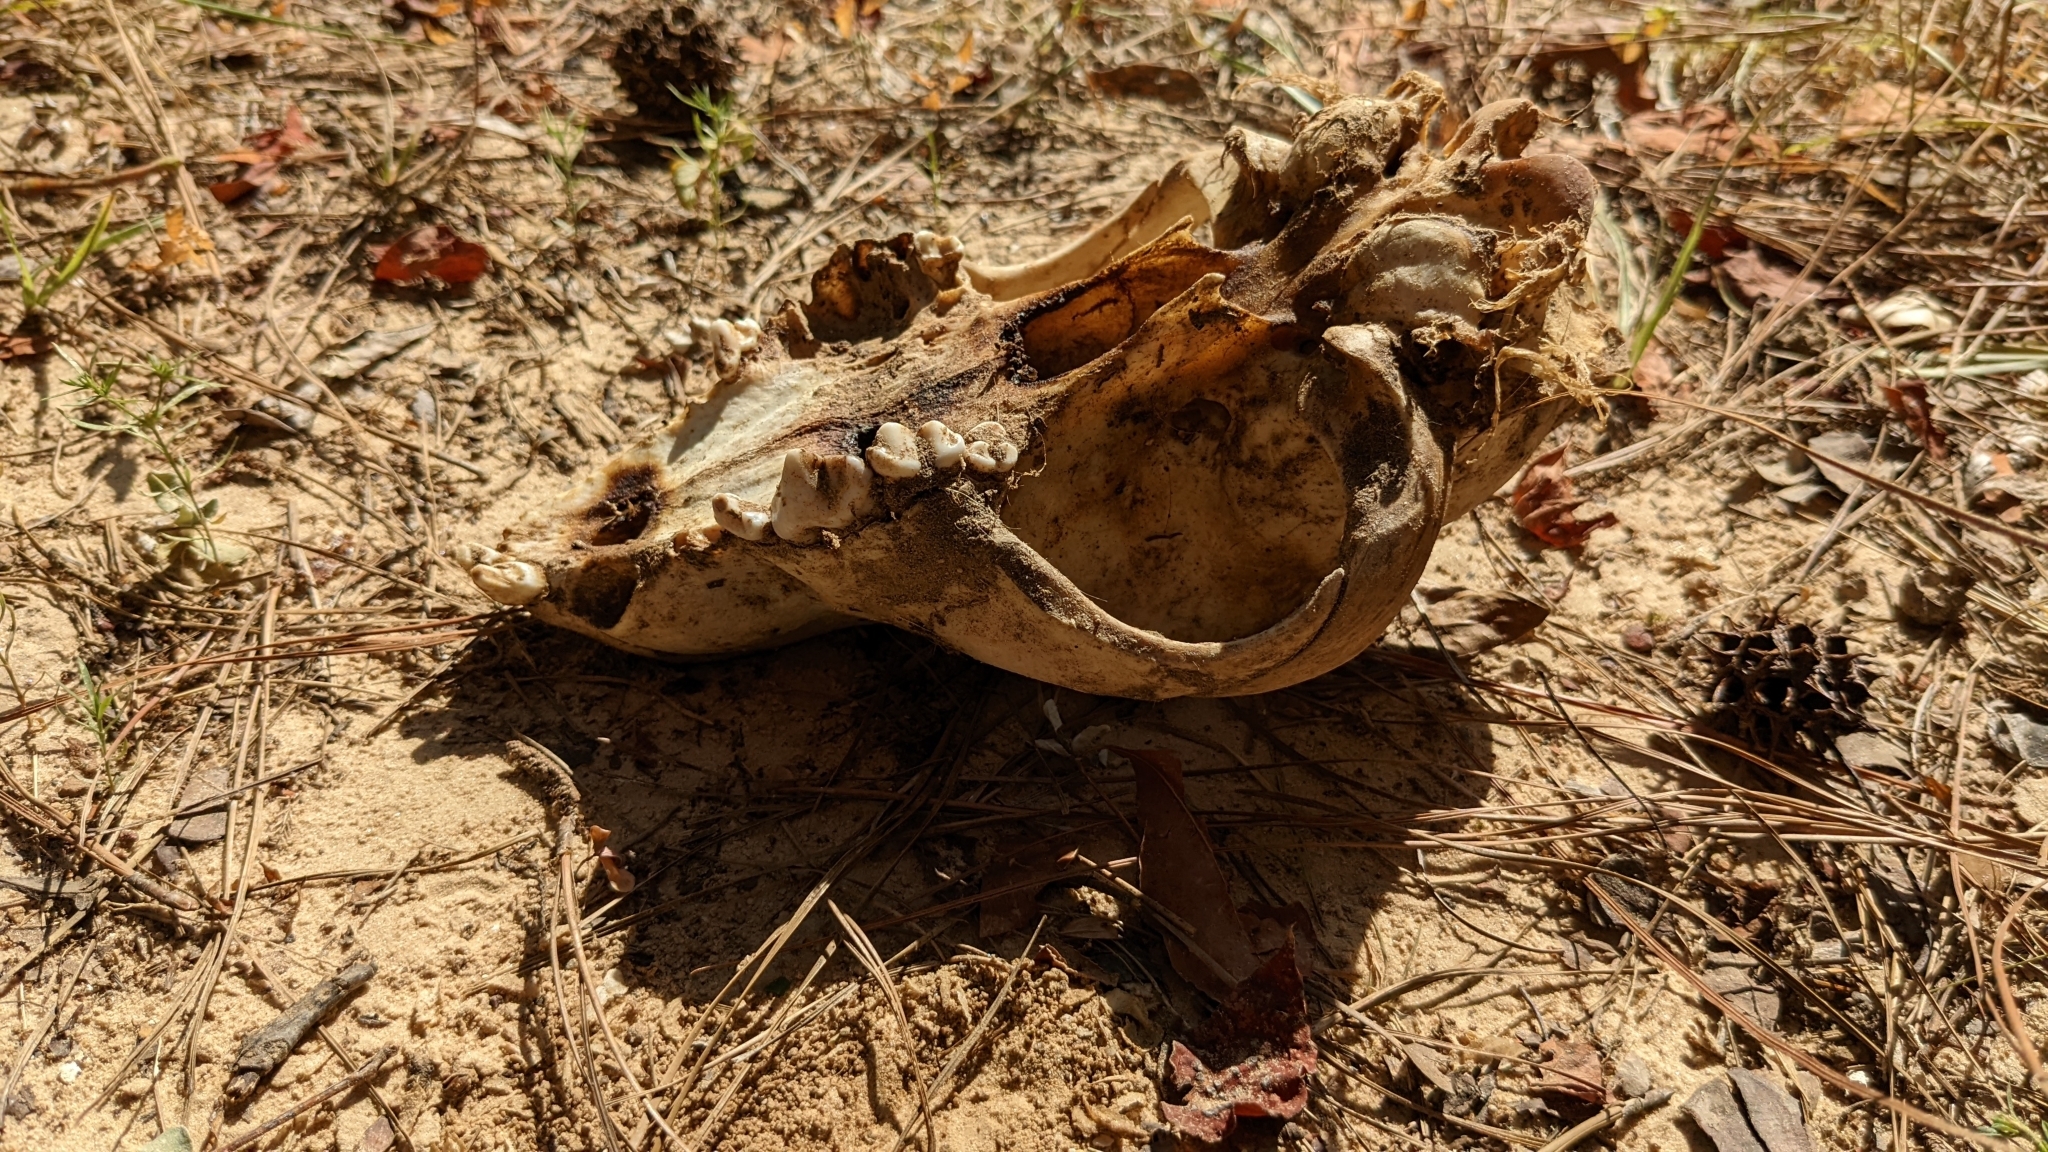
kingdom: Animalia
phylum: Chordata
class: Mammalia
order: Carnivora
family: Canidae
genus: Canis
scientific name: Canis lupus
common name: Gray wolf
